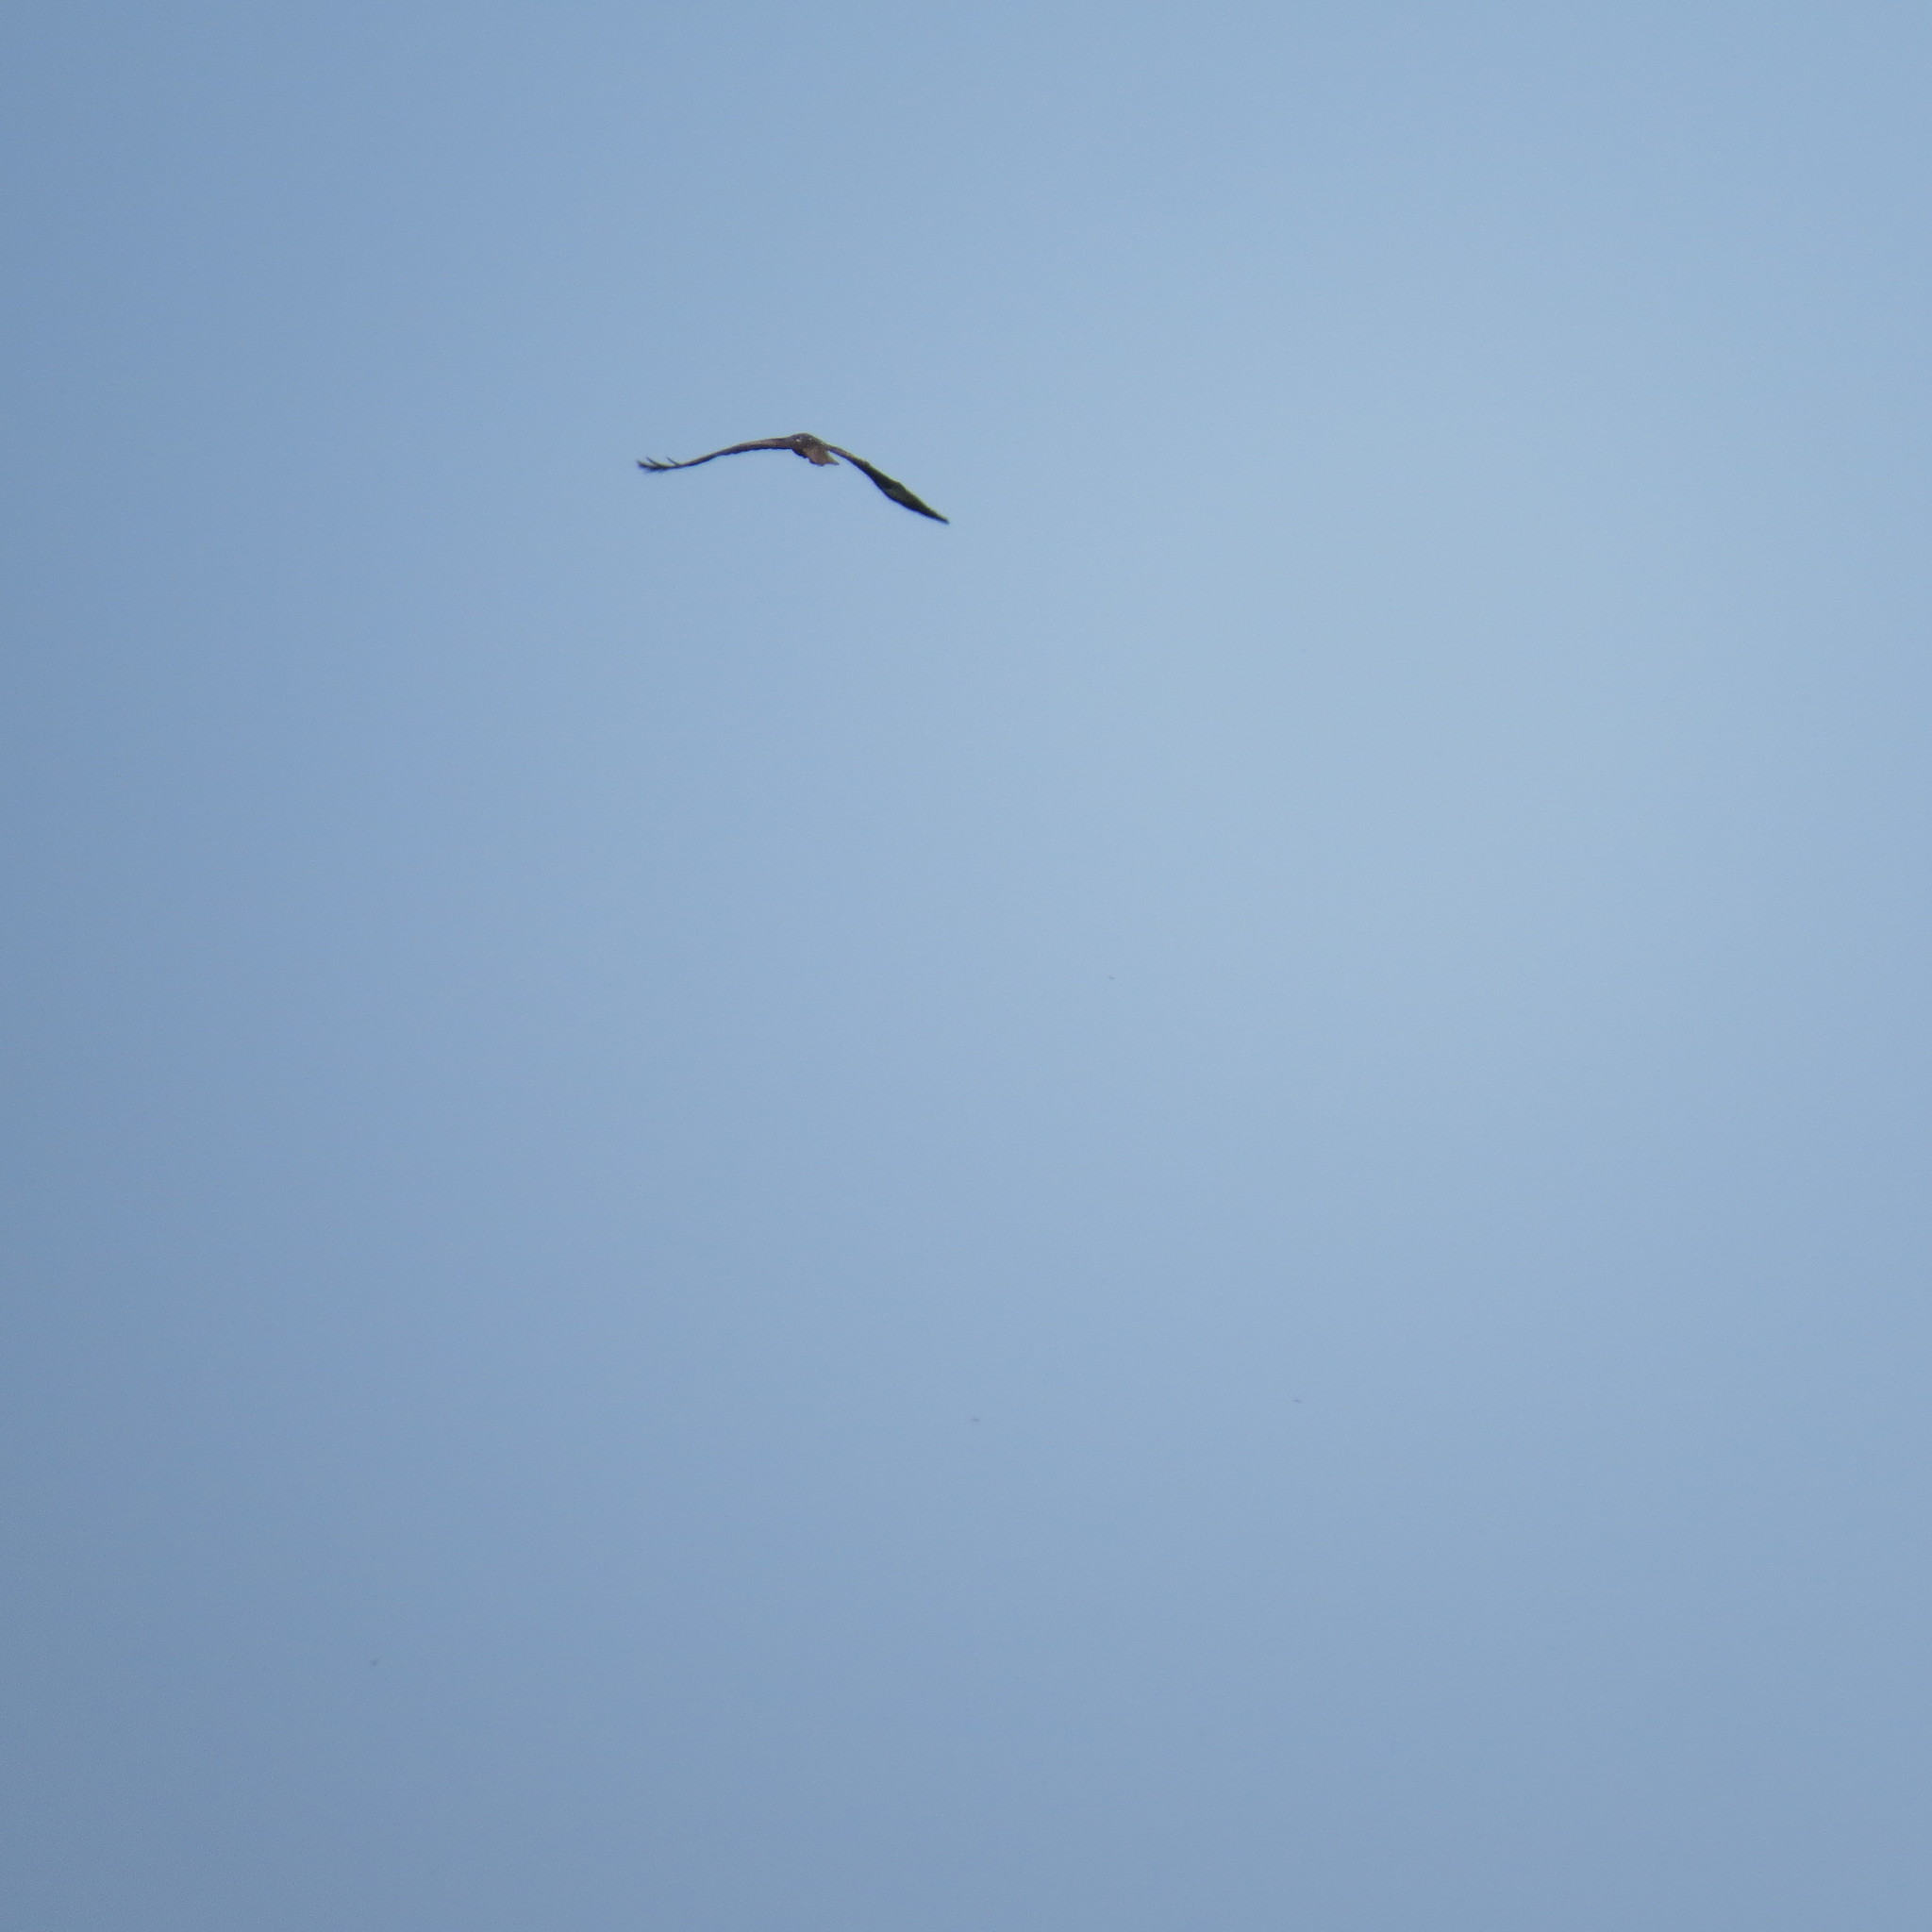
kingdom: Animalia
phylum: Chordata
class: Aves
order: Accipitriformes
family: Accipitridae
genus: Milvus
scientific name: Milvus migrans
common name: Black kite
